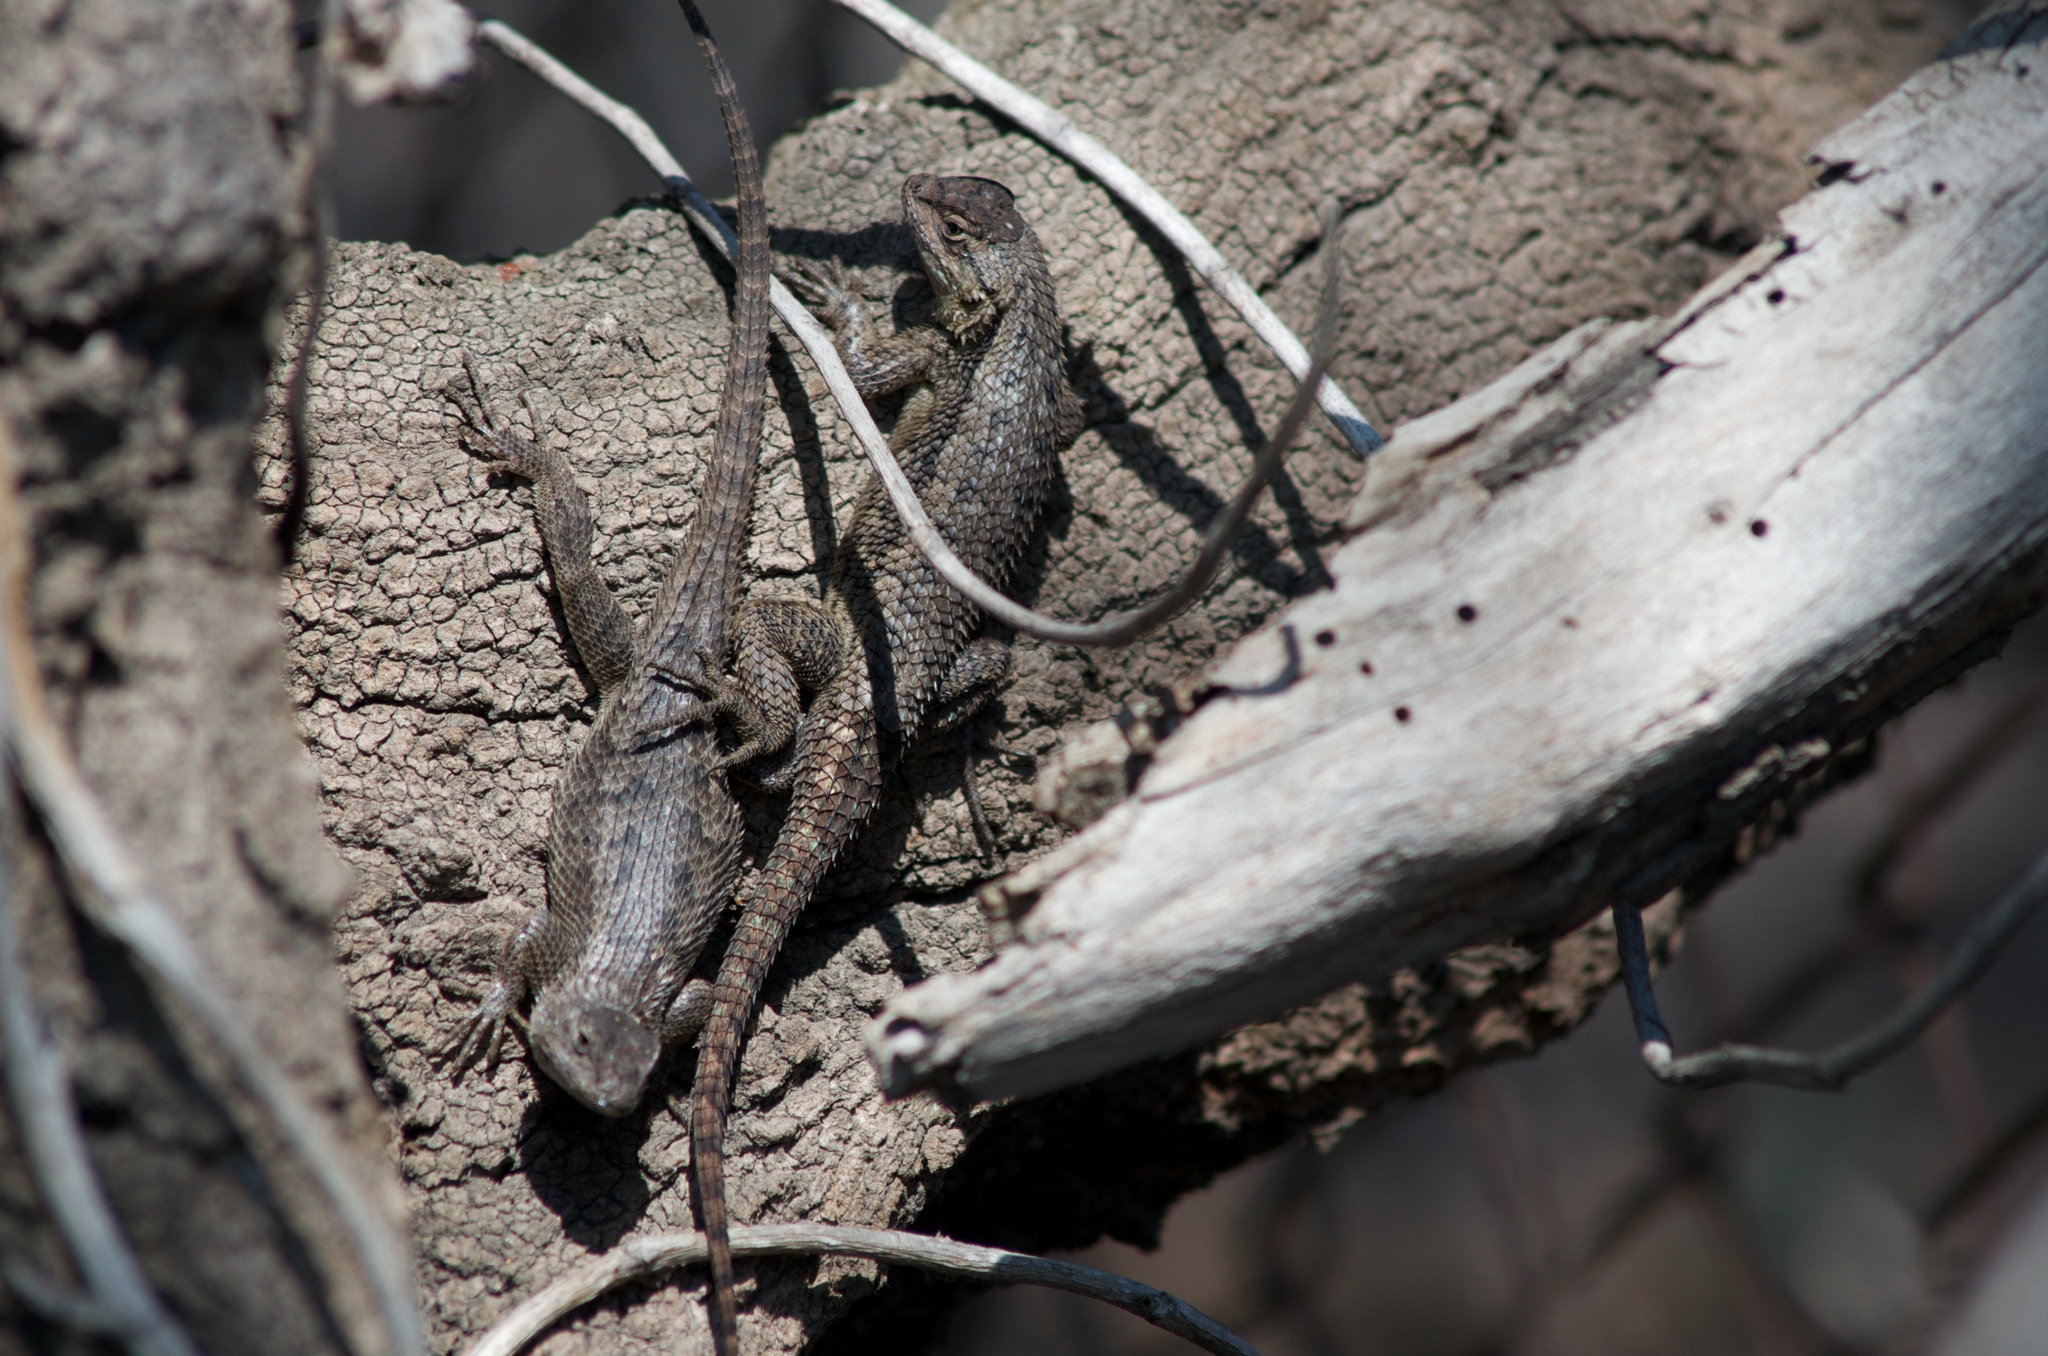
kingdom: Animalia
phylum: Chordata
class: Squamata
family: Phrynosomatidae
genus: Sceloporus
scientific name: Sceloporus occidentalis
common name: Western fence lizard
